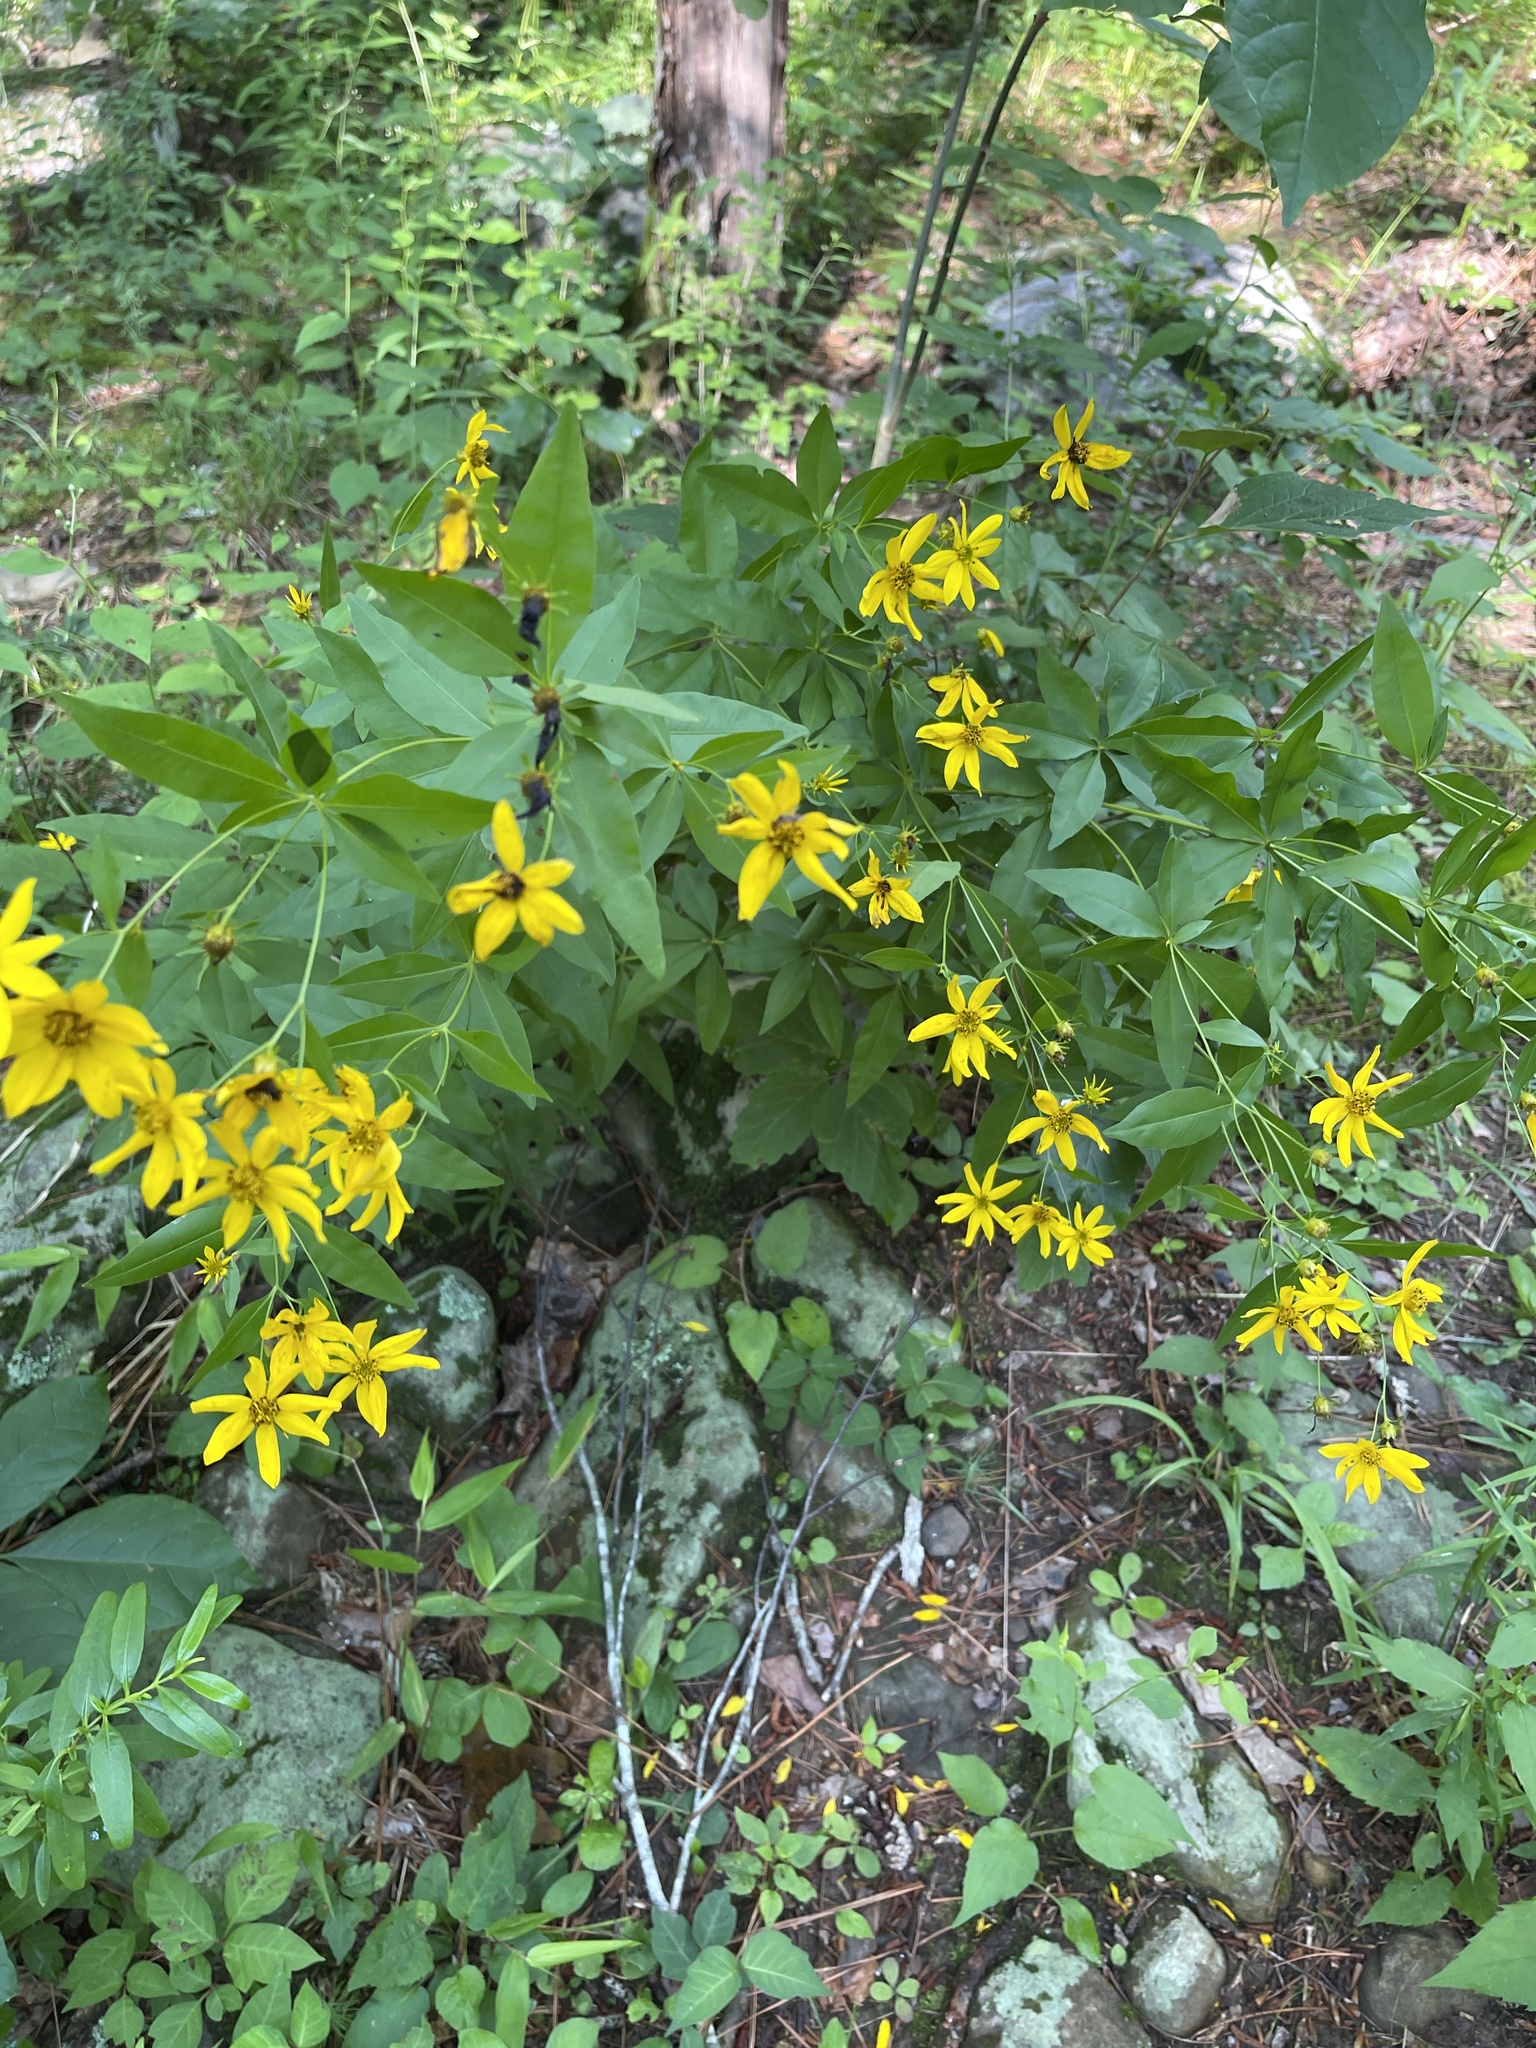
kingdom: Plantae
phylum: Tracheophyta
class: Magnoliopsida
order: Asterales
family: Asteraceae
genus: Coreopsis
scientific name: Coreopsis major
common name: Forest tickseed
